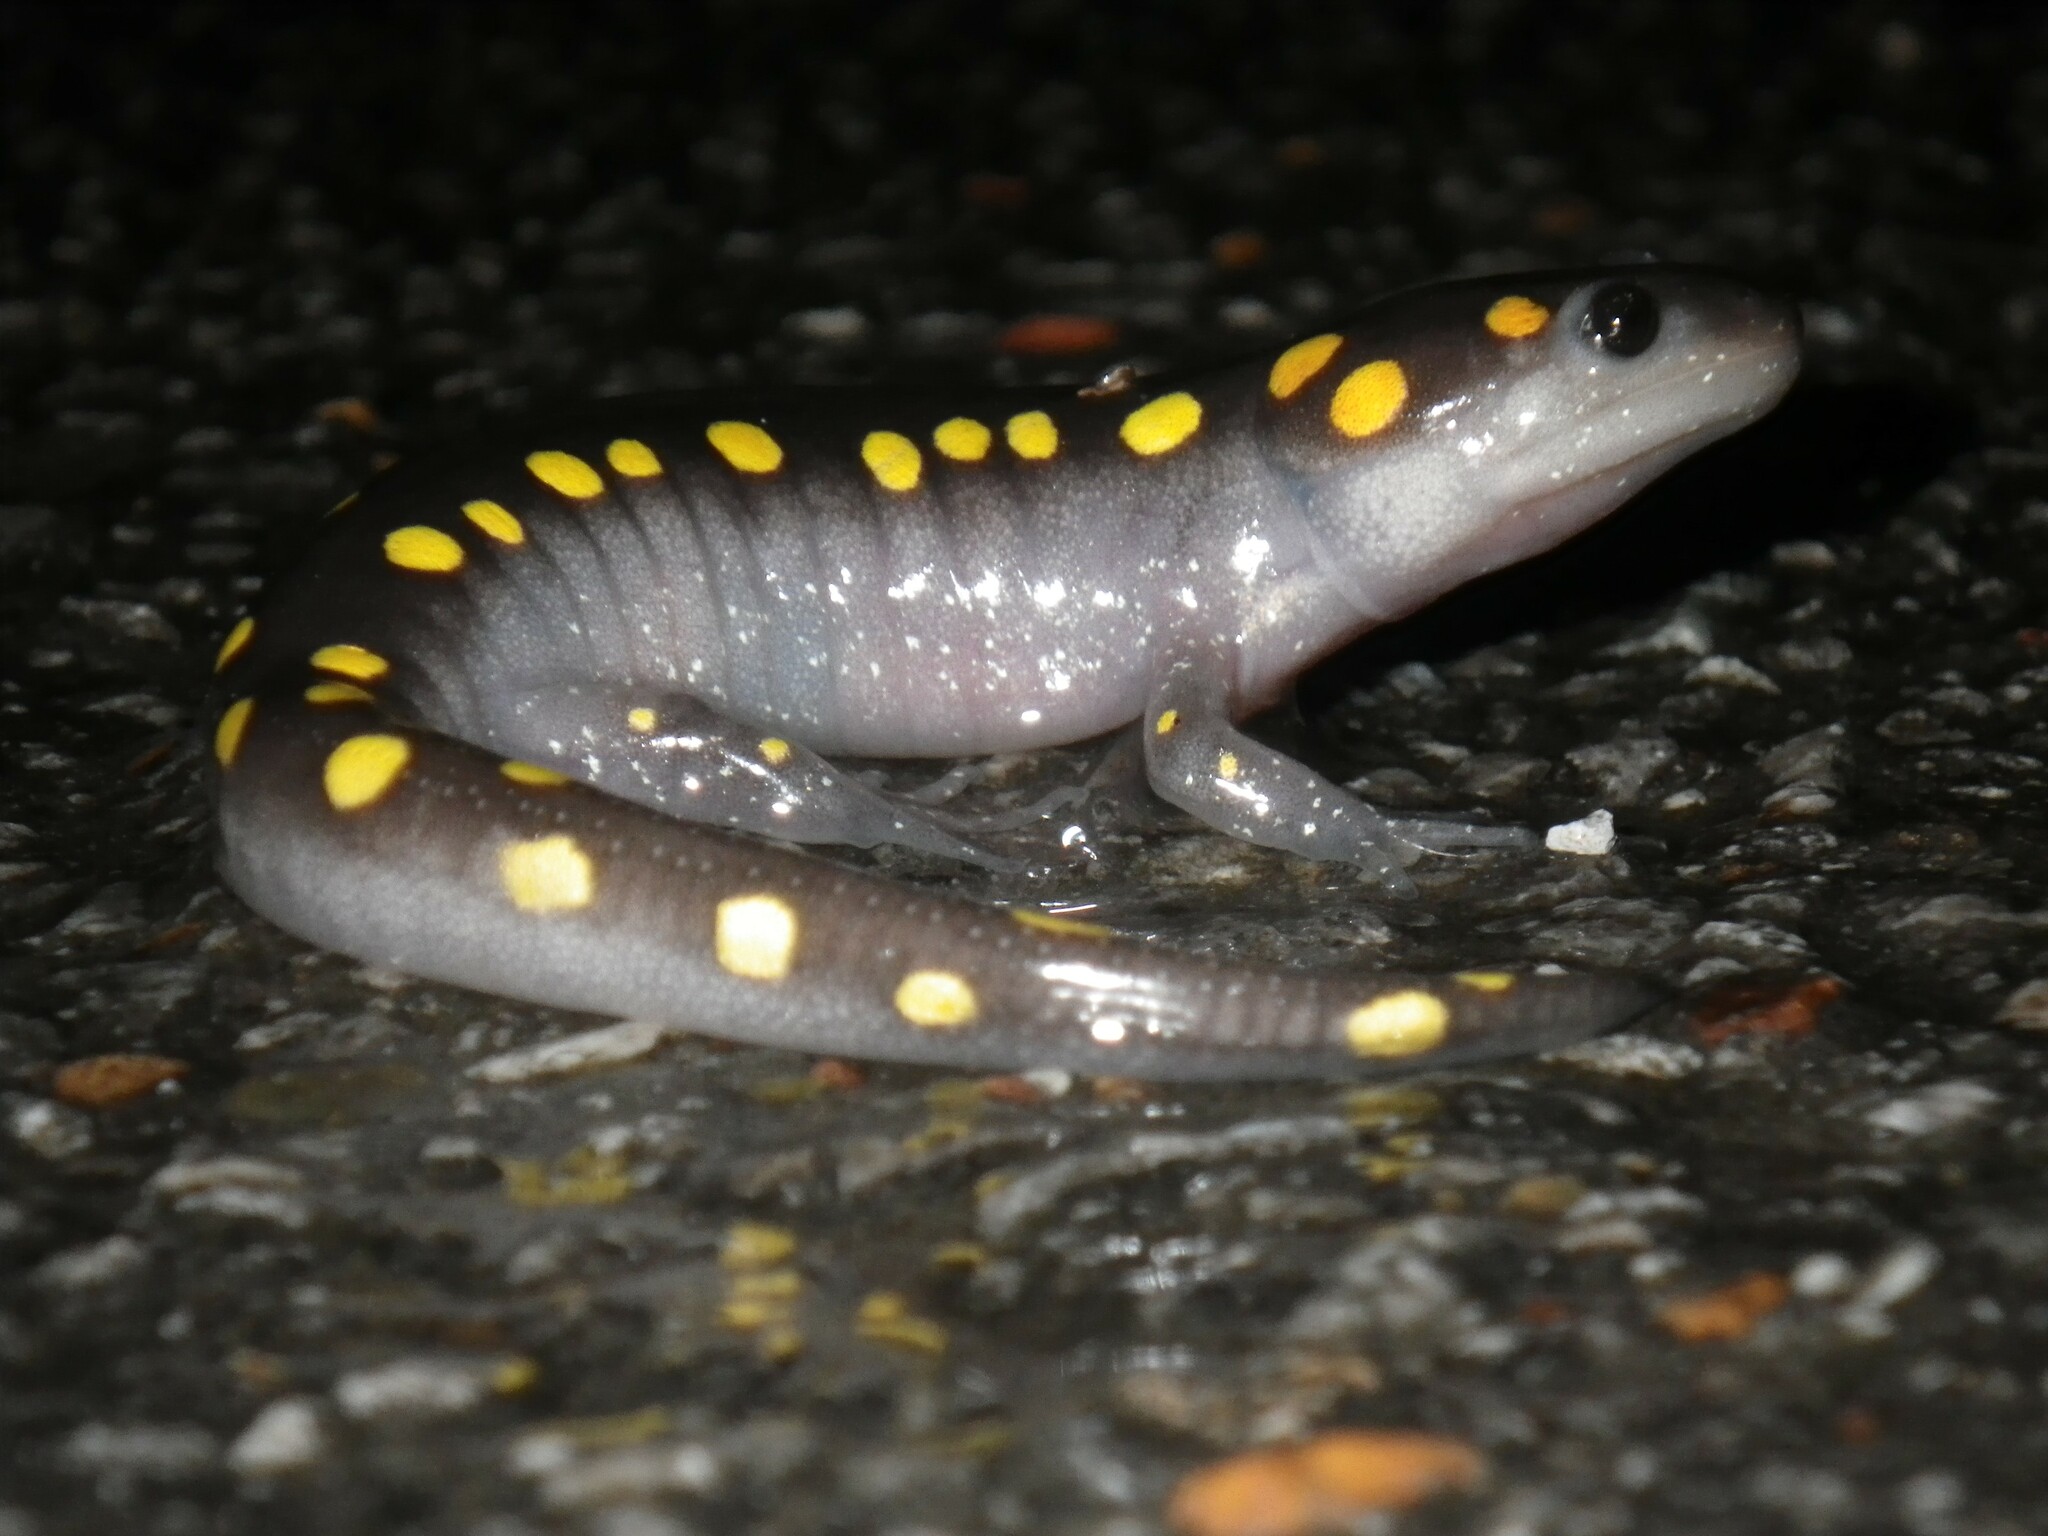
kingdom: Animalia
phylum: Chordata
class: Amphibia
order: Caudata
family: Ambystomatidae
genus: Ambystoma
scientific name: Ambystoma maculatum
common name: Spotted salamander
